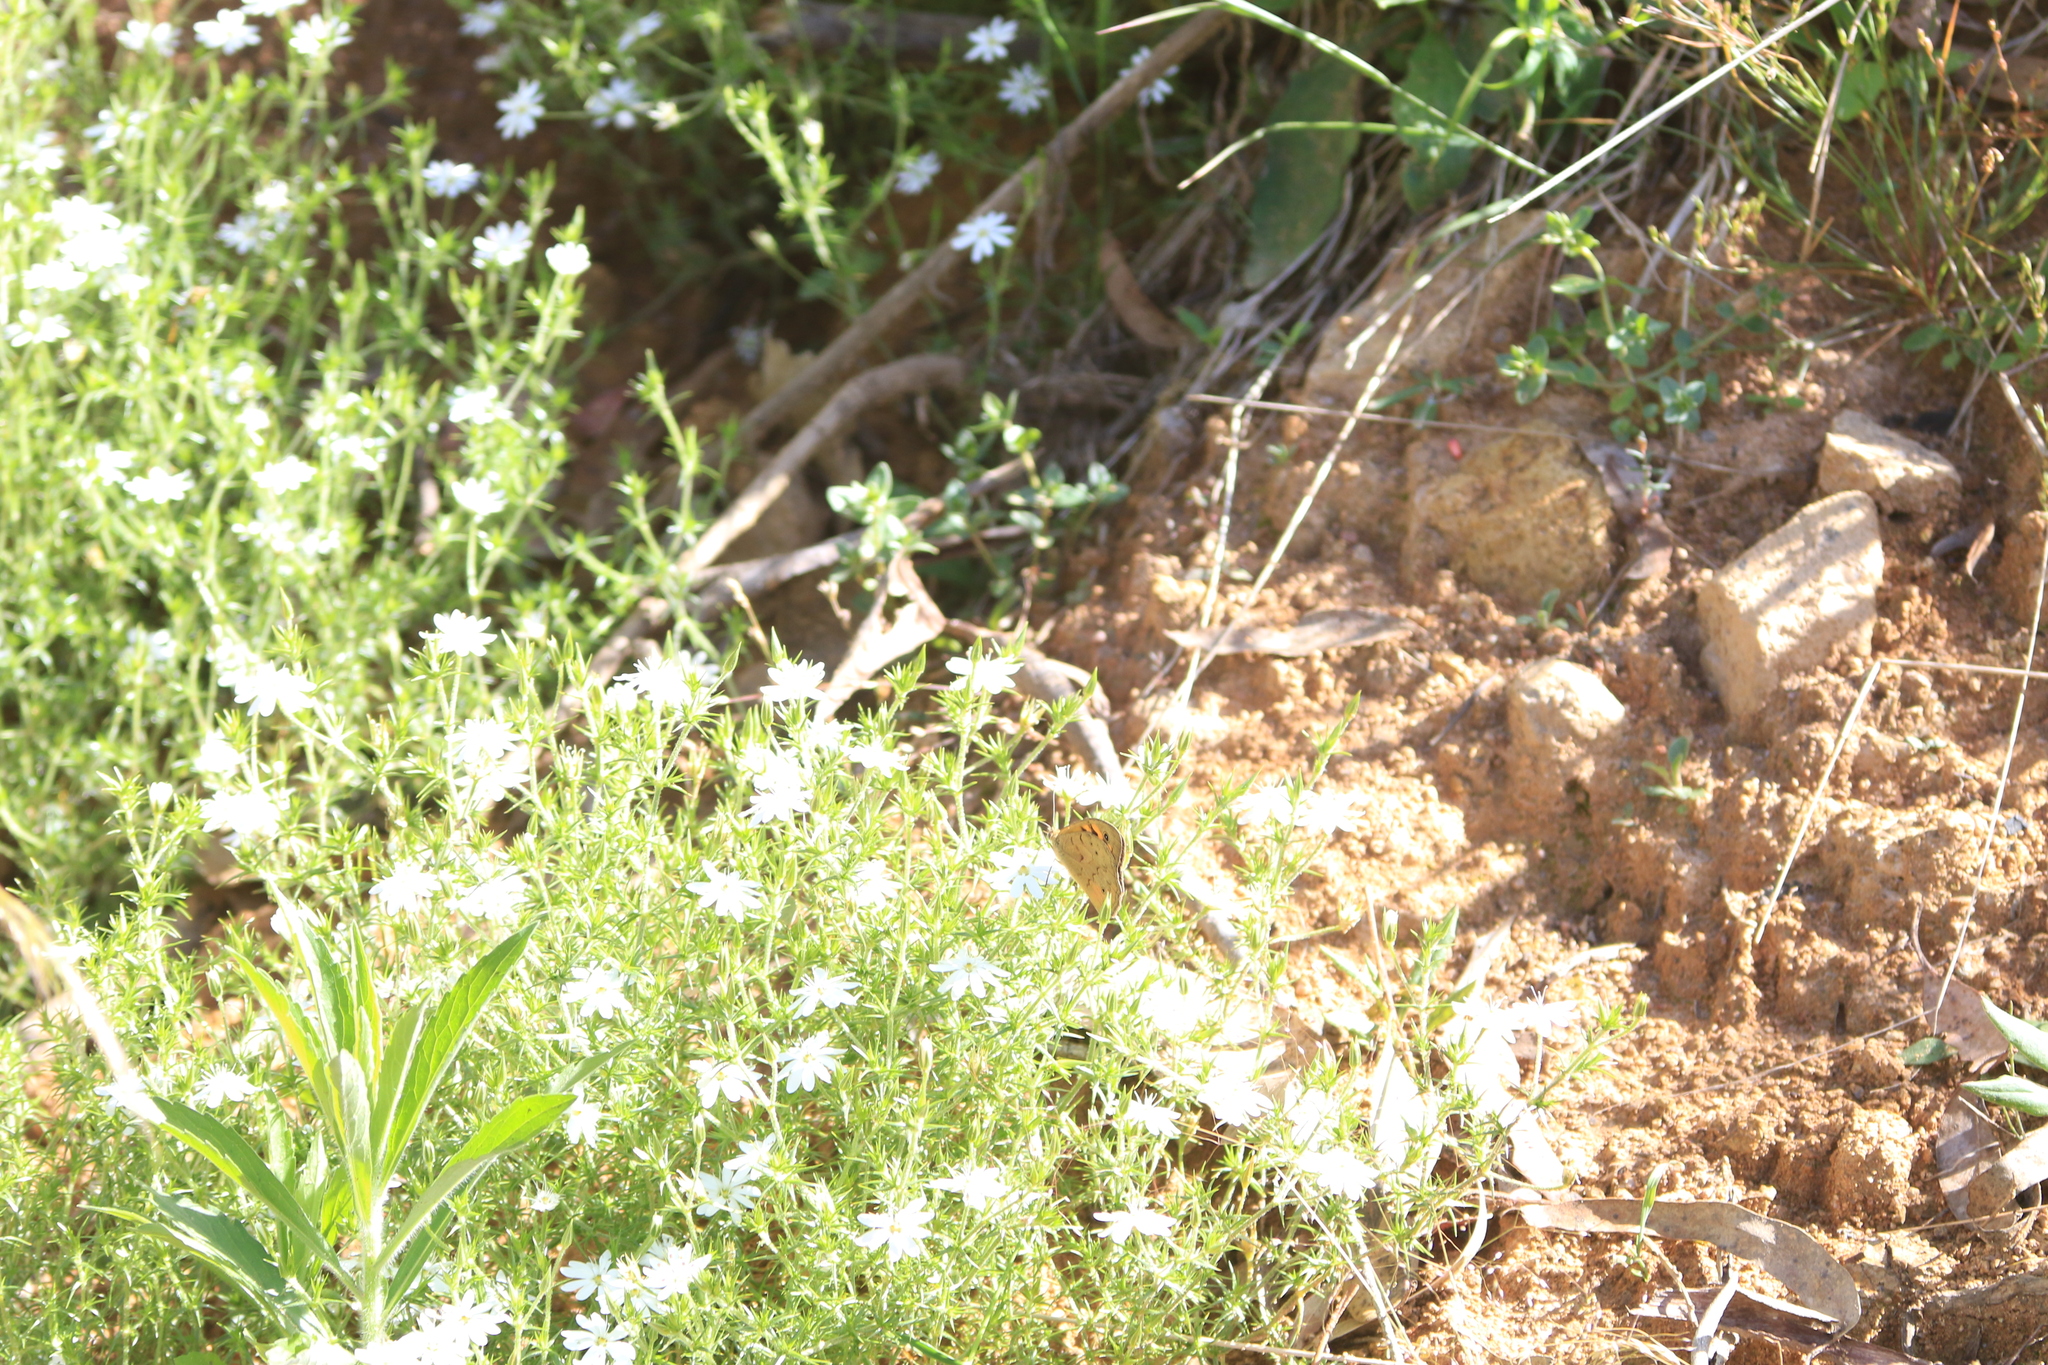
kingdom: Animalia
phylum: Arthropoda
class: Insecta
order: Lepidoptera
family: Nymphalidae
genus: Heteronympha
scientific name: Heteronympha merope
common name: Common brown
